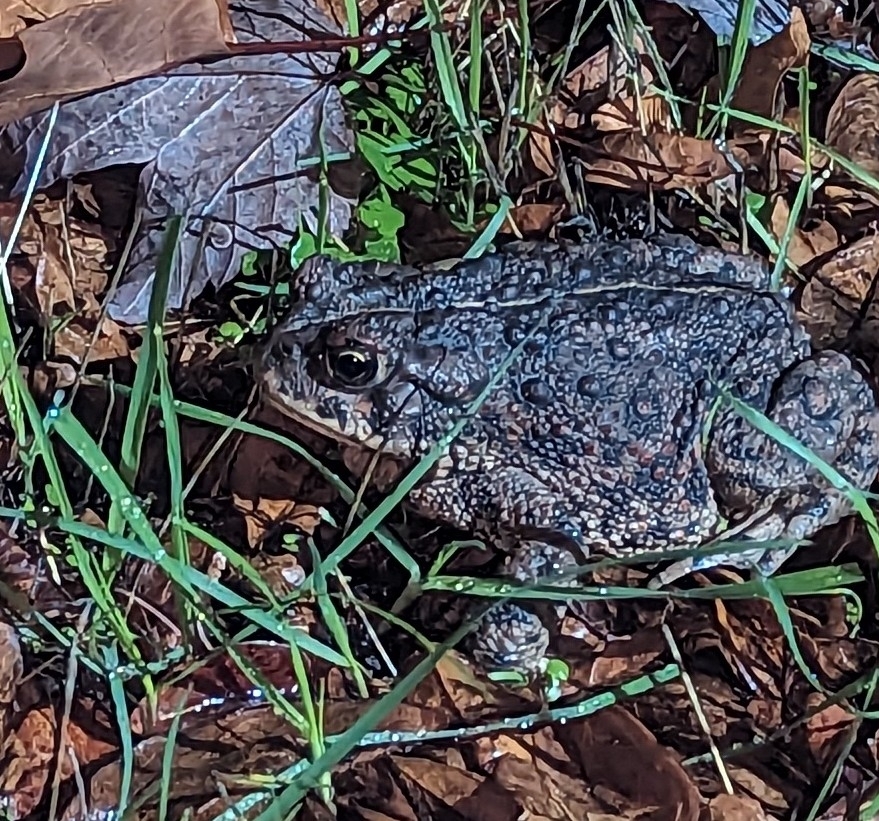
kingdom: Animalia
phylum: Chordata
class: Amphibia
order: Anura
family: Bufonidae
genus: Anaxyrus
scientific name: Anaxyrus boreas
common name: Western toad
